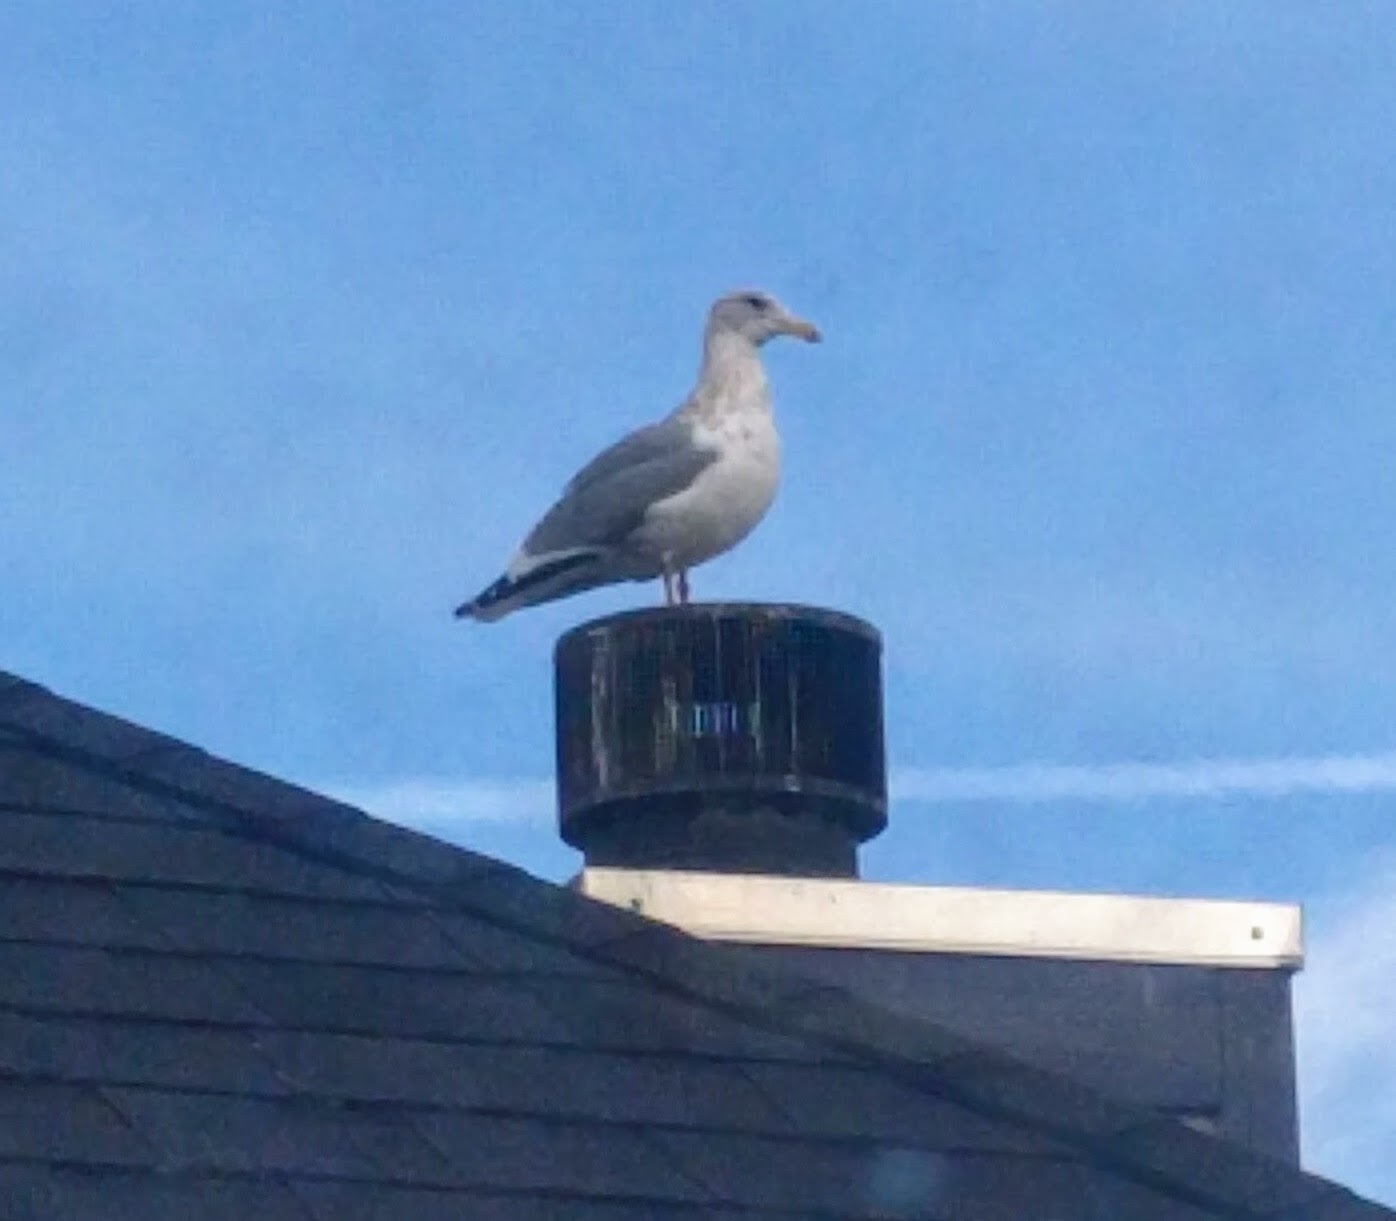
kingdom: Animalia
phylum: Chordata
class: Aves
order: Charadriiformes
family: Laridae
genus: Larus
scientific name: Larus
